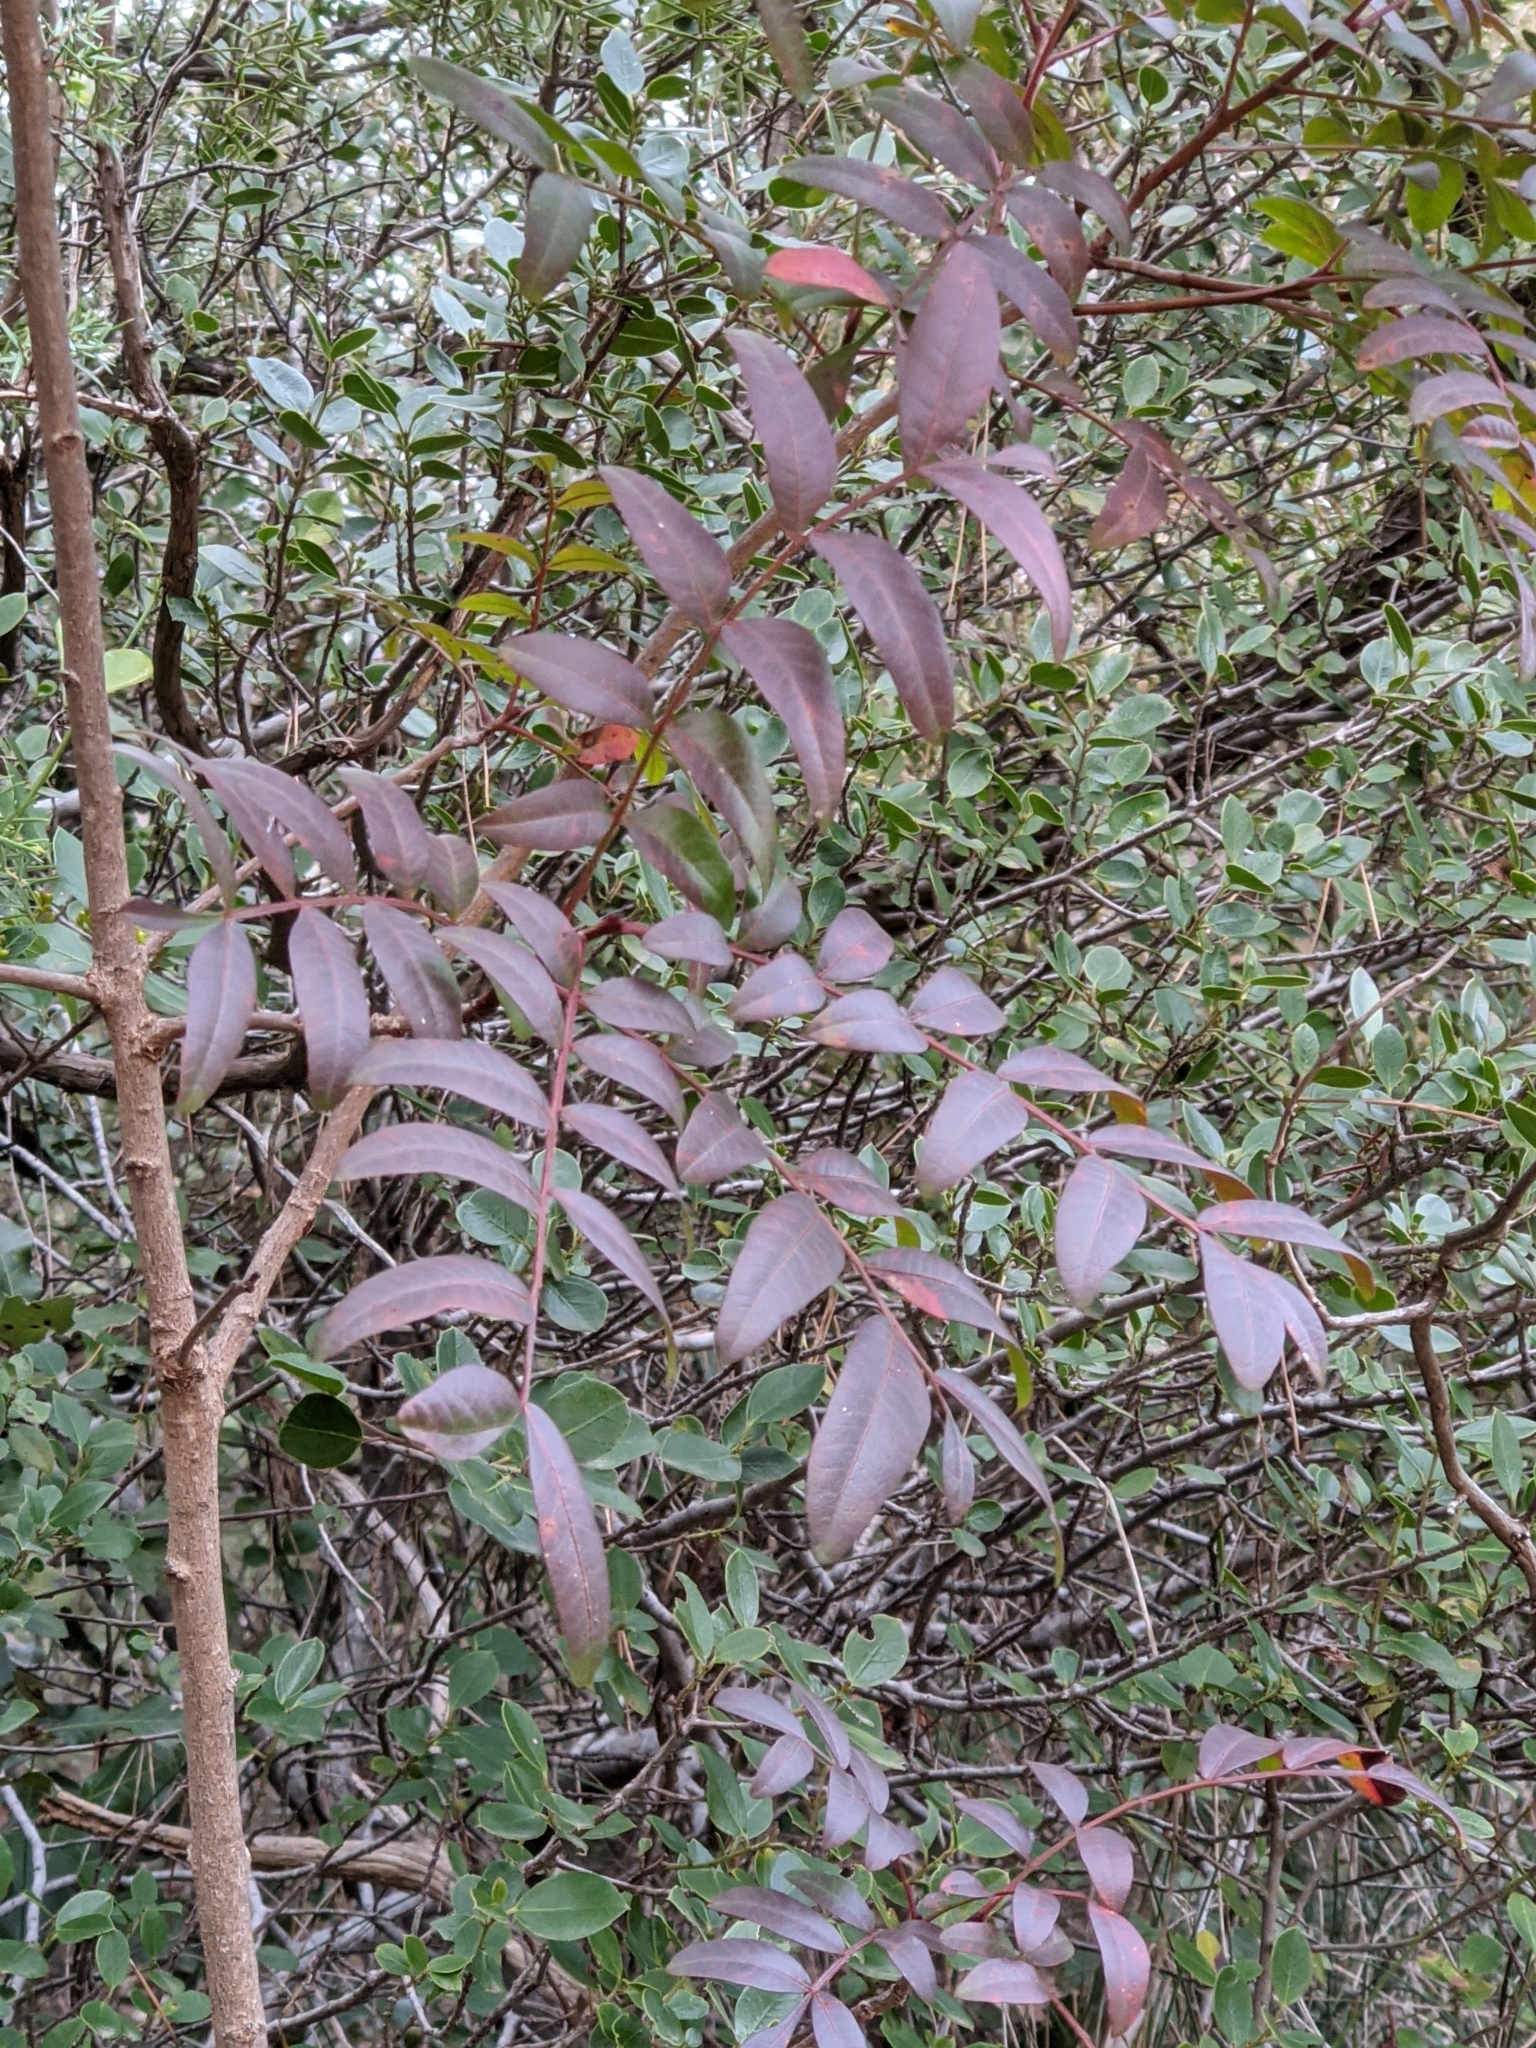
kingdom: Plantae
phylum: Tracheophyta
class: Magnoliopsida
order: Sapindales
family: Anacardiaceae
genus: Pistacia
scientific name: Pistacia saportae
